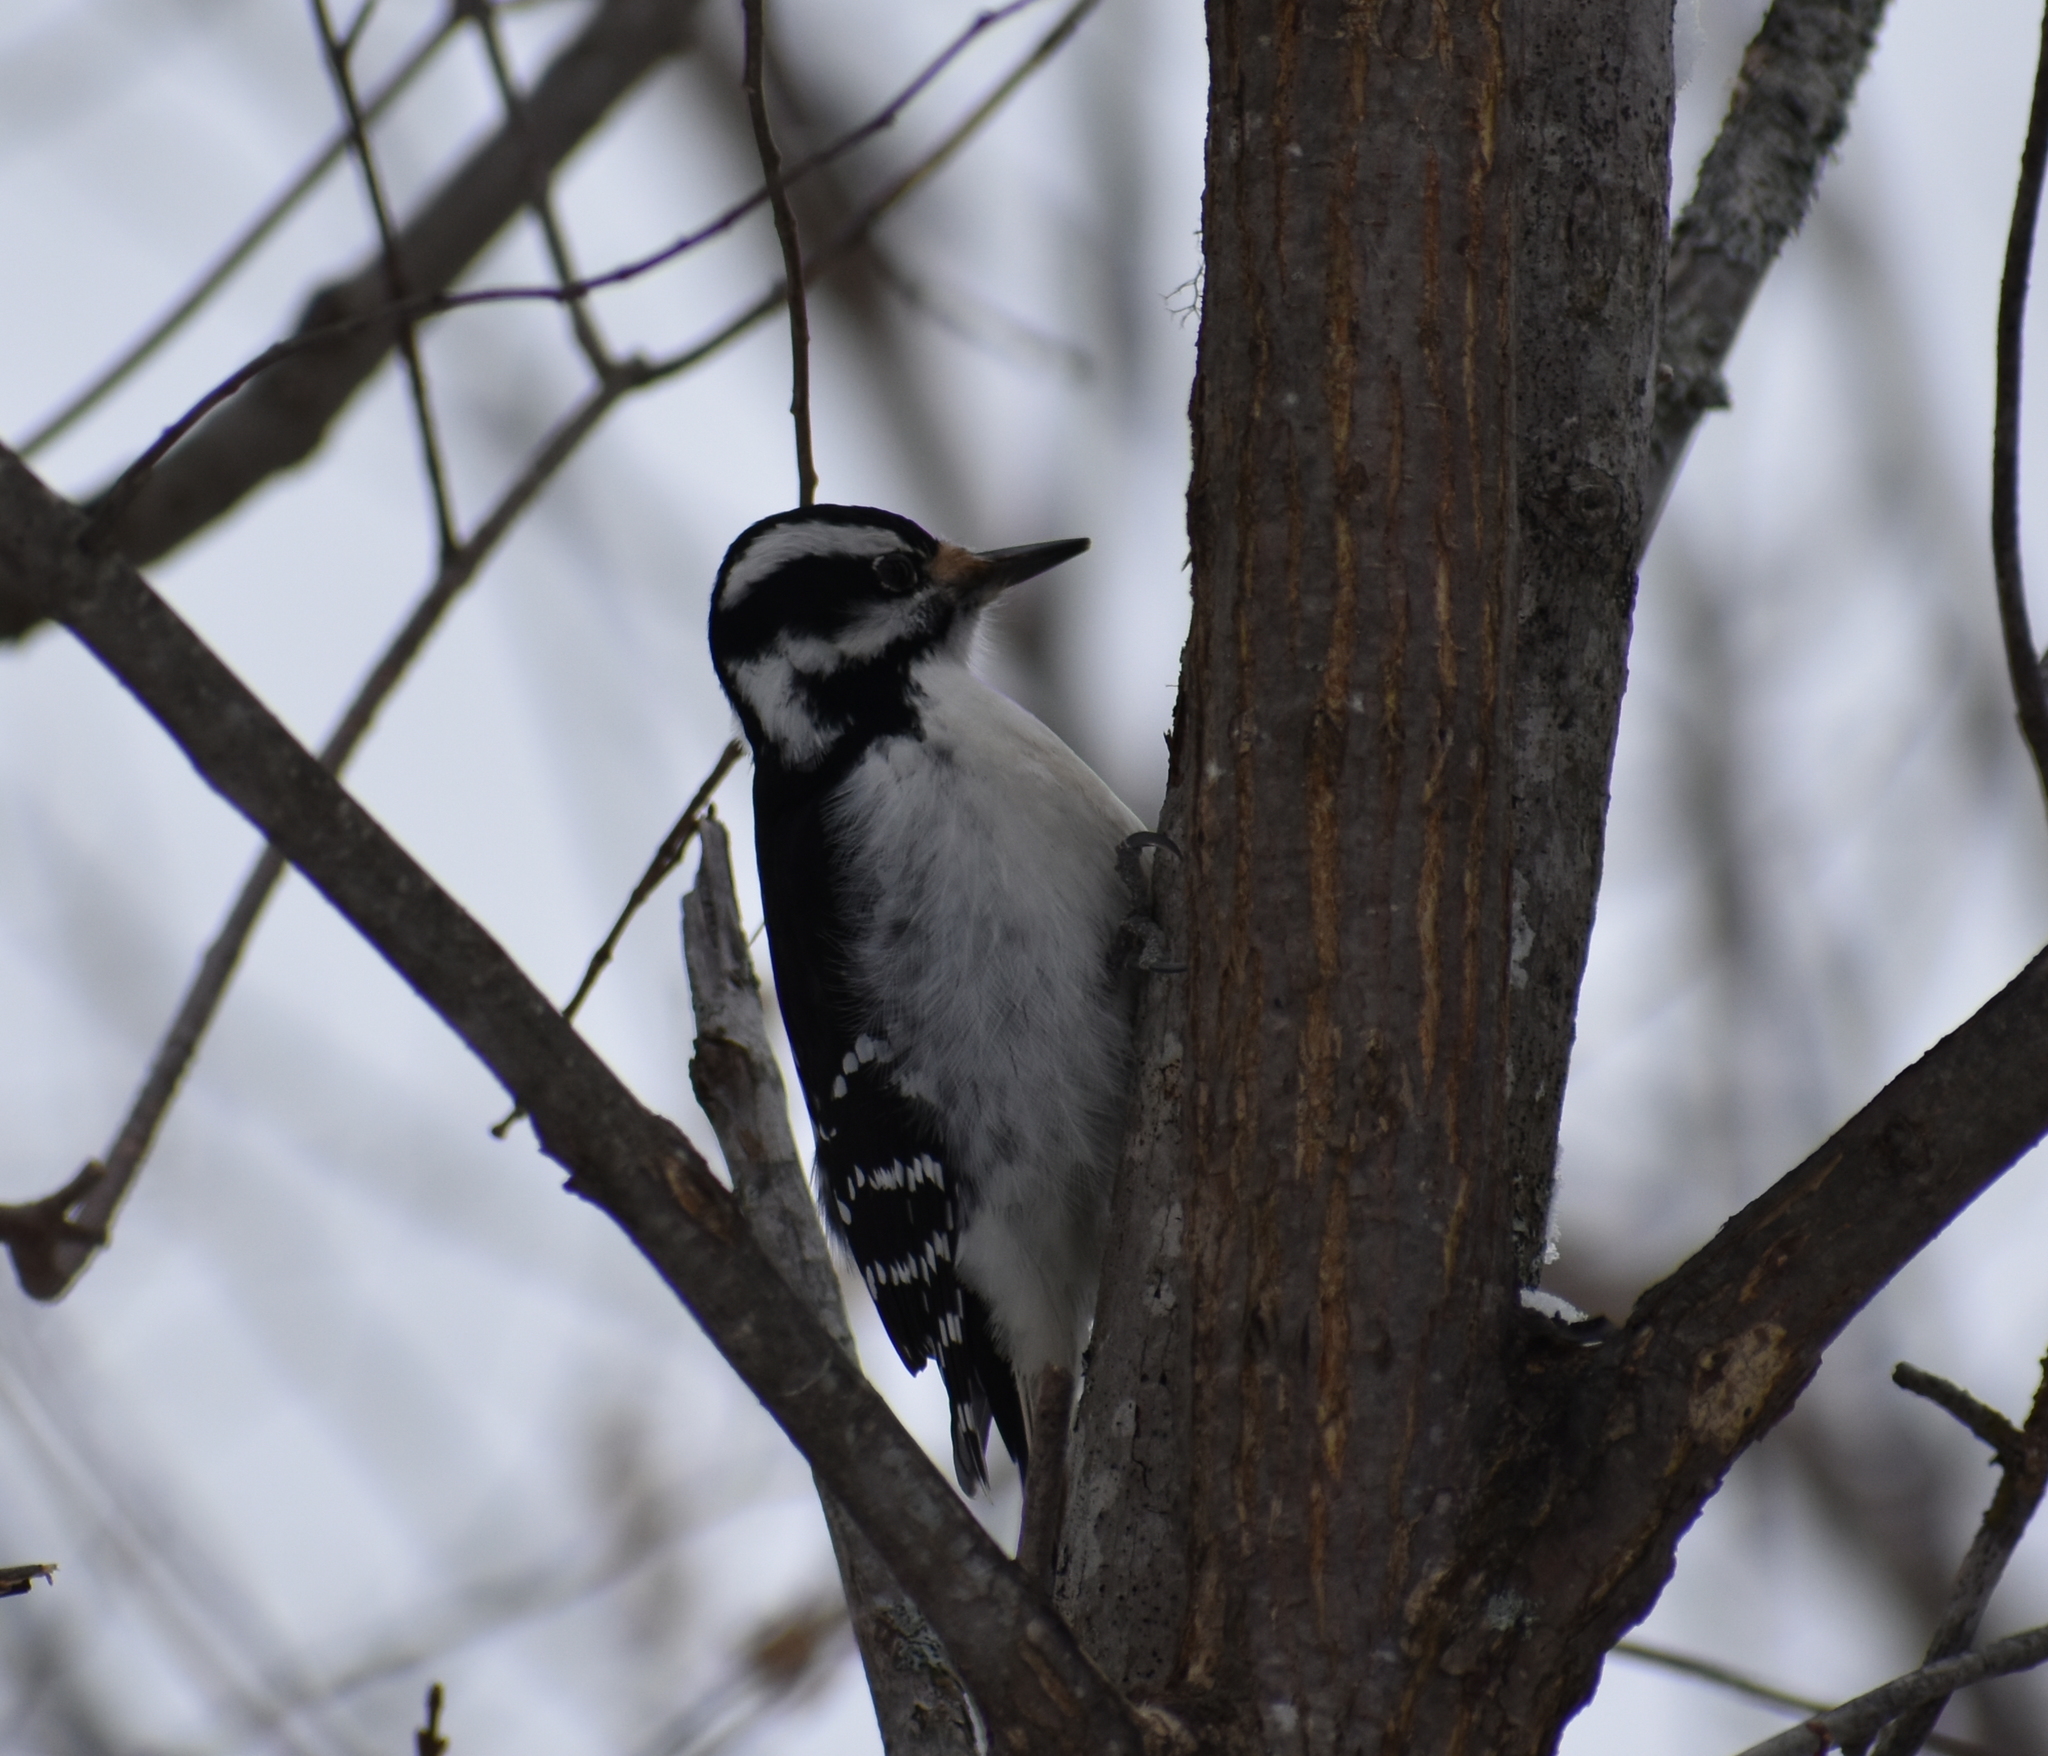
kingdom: Animalia
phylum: Chordata
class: Aves
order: Piciformes
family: Picidae
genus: Leuconotopicus
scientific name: Leuconotopicus villosus
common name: Hairy woodpecker
